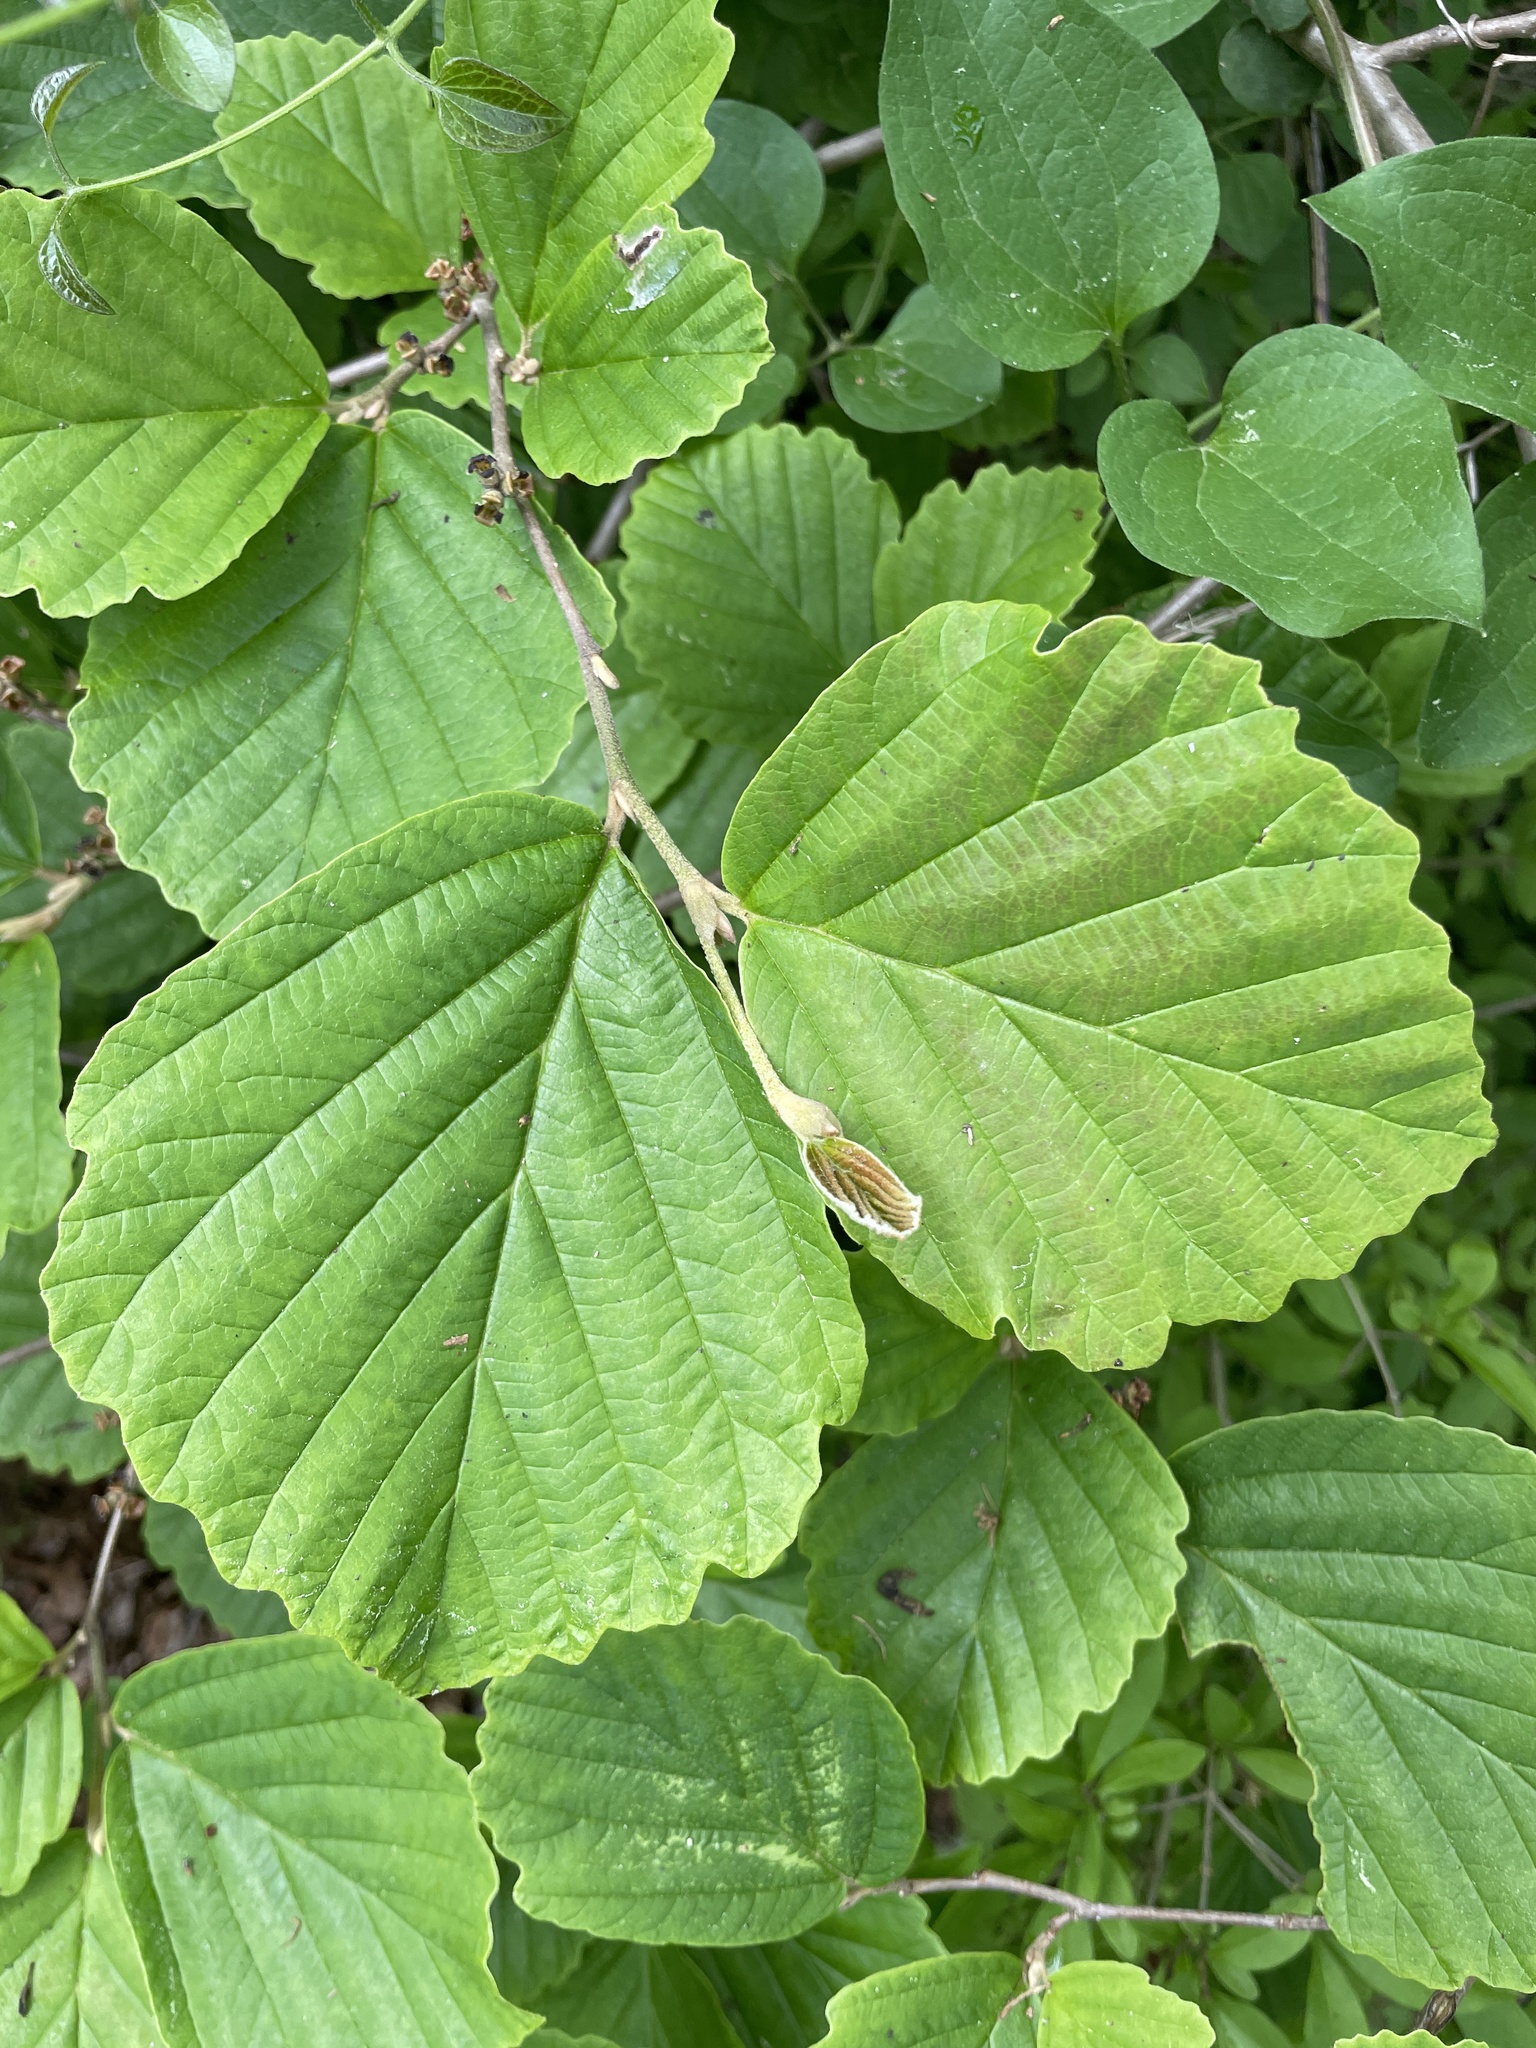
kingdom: Plantae
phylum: Tracheophyta
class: Magnoliopsida
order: Saxifragales
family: Hamamelidaceae
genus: Hamamelis
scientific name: Hamamelis virginiana
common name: Witch-hazel
